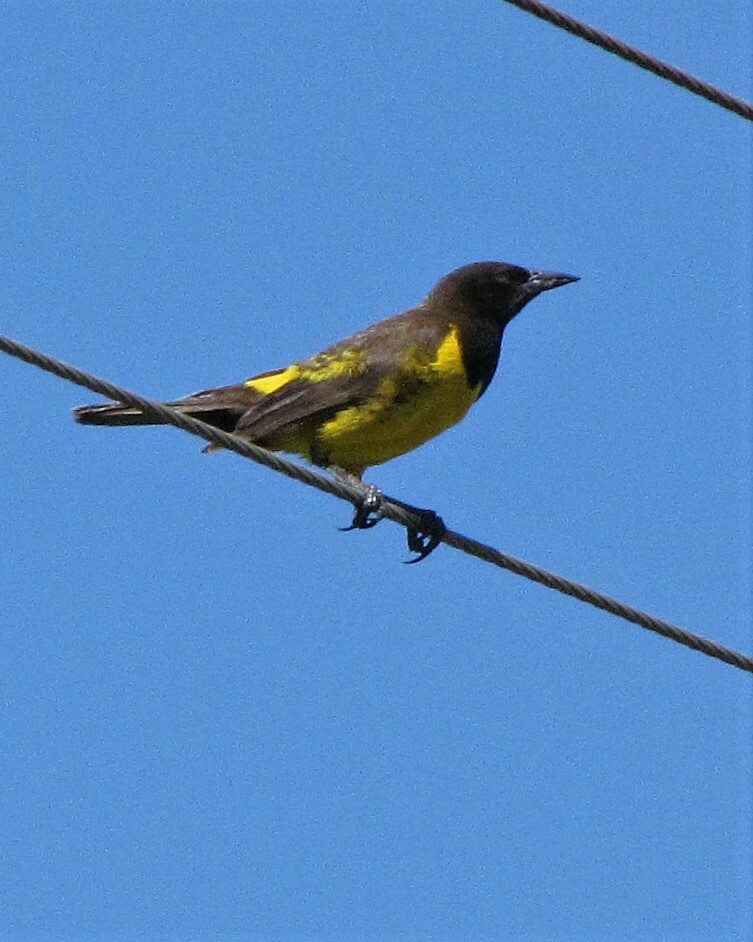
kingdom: Animalia
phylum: Chordata
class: Aves
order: Passeriformes
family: Icteridae
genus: Pseudoleistes
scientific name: Pseudoleistes guirahuro
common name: Yellow-rumped marshbird
